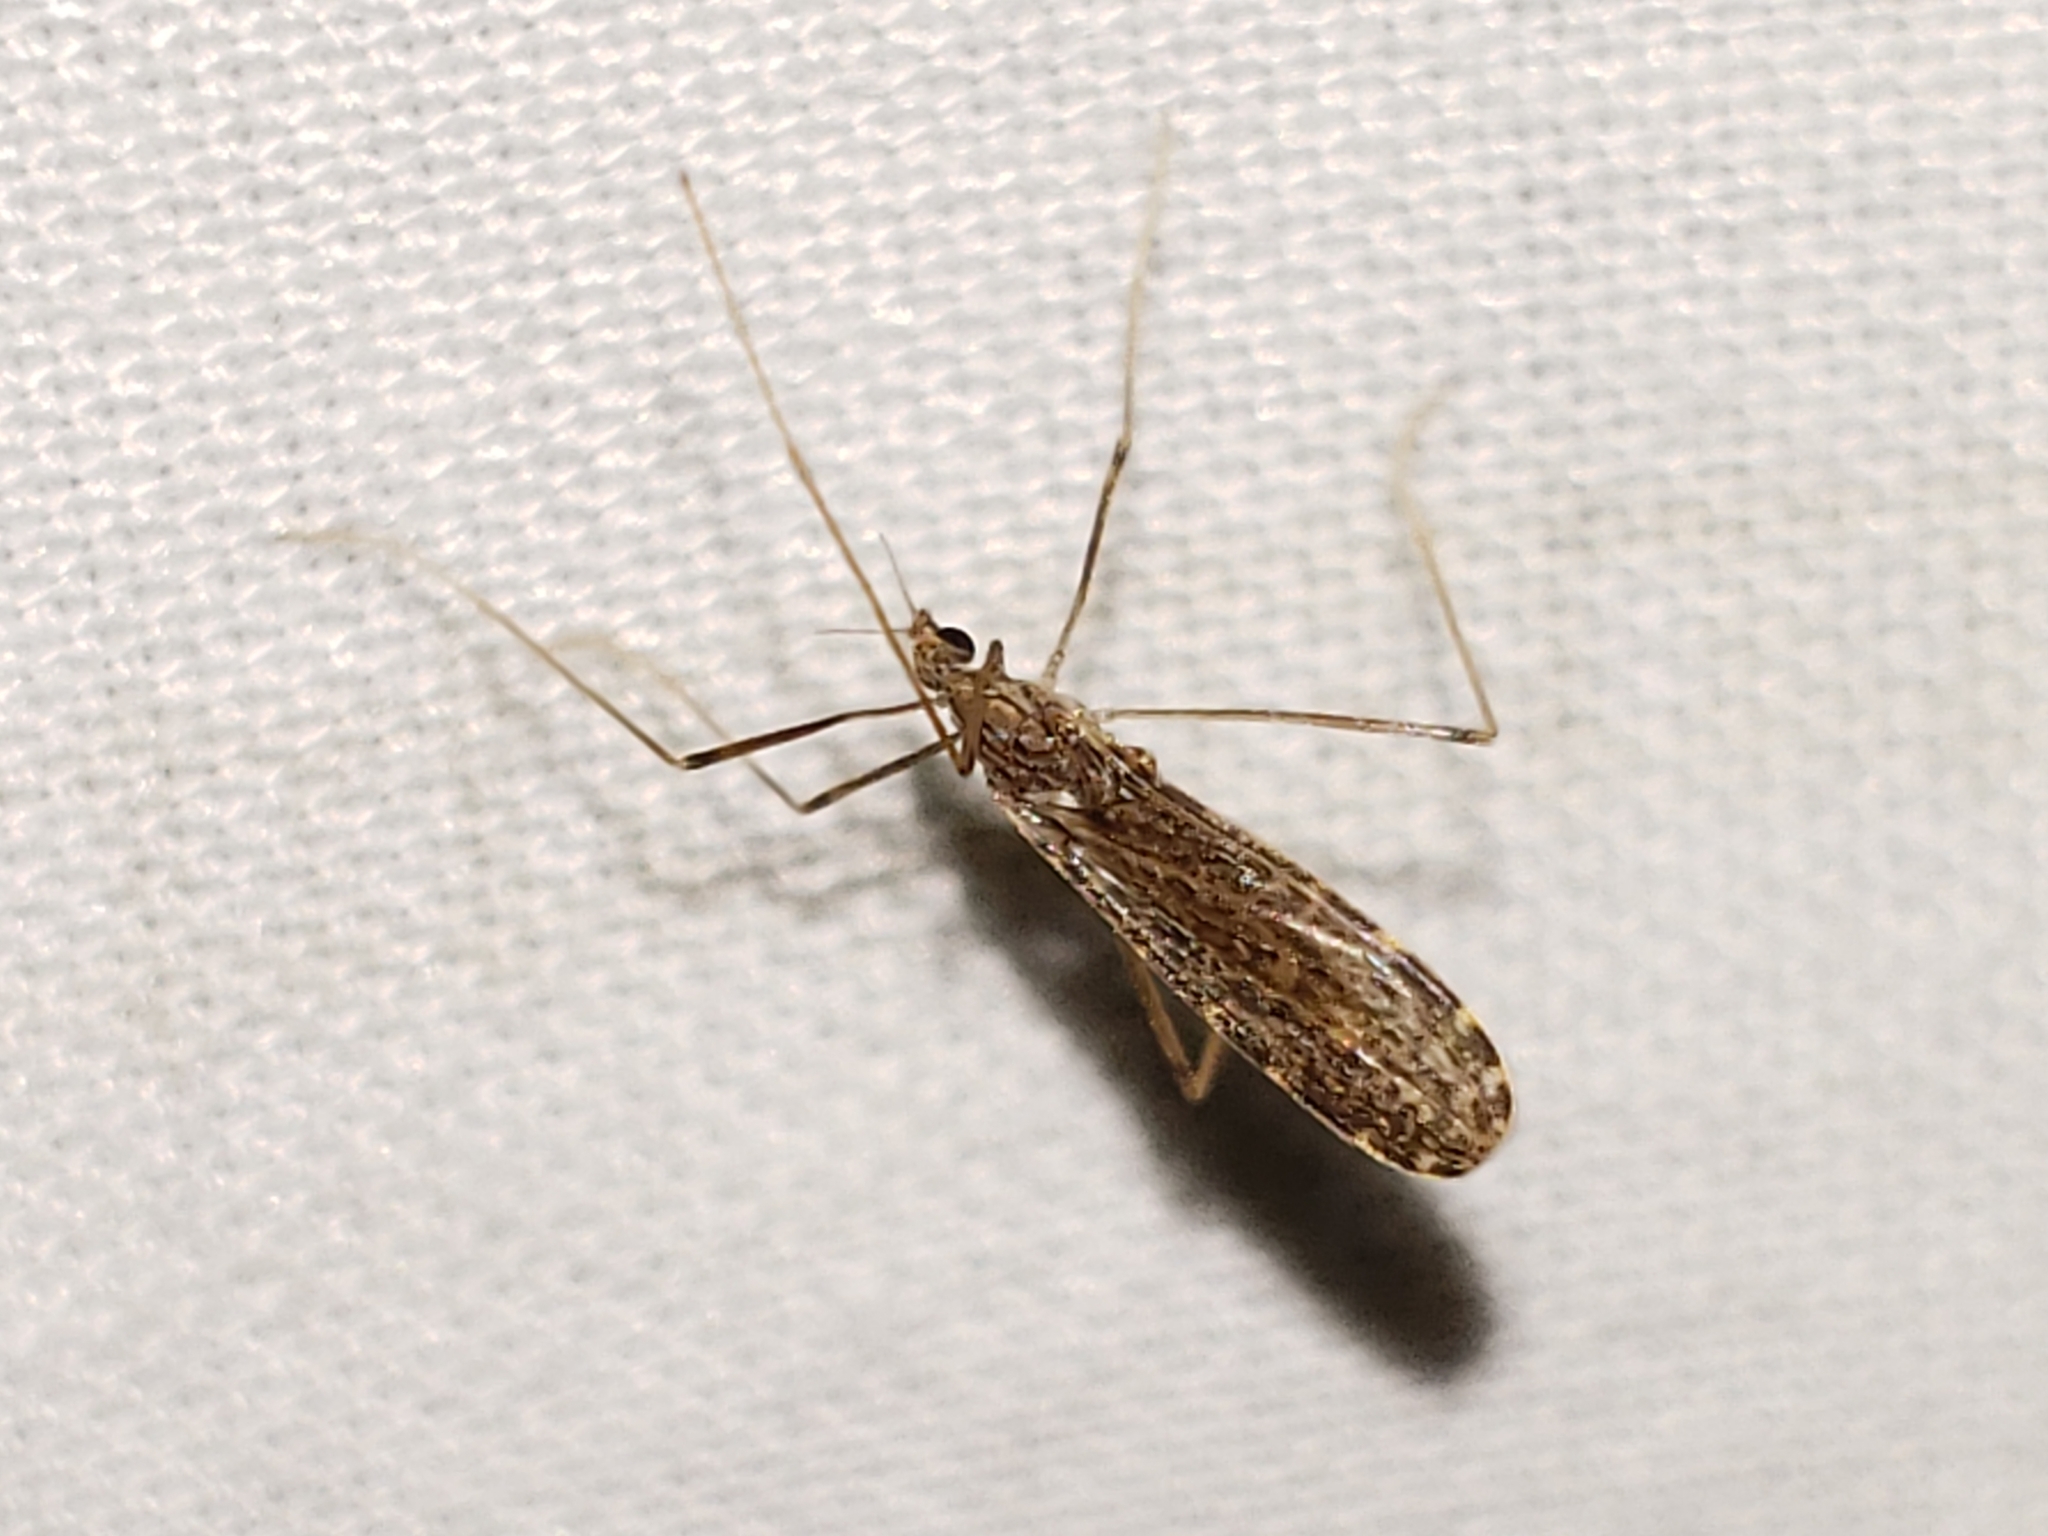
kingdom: Animalia
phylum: Arthropoda
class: Insecta
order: Diptera
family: Limoniidae
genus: Erioptera
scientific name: Erioptera tantilla
